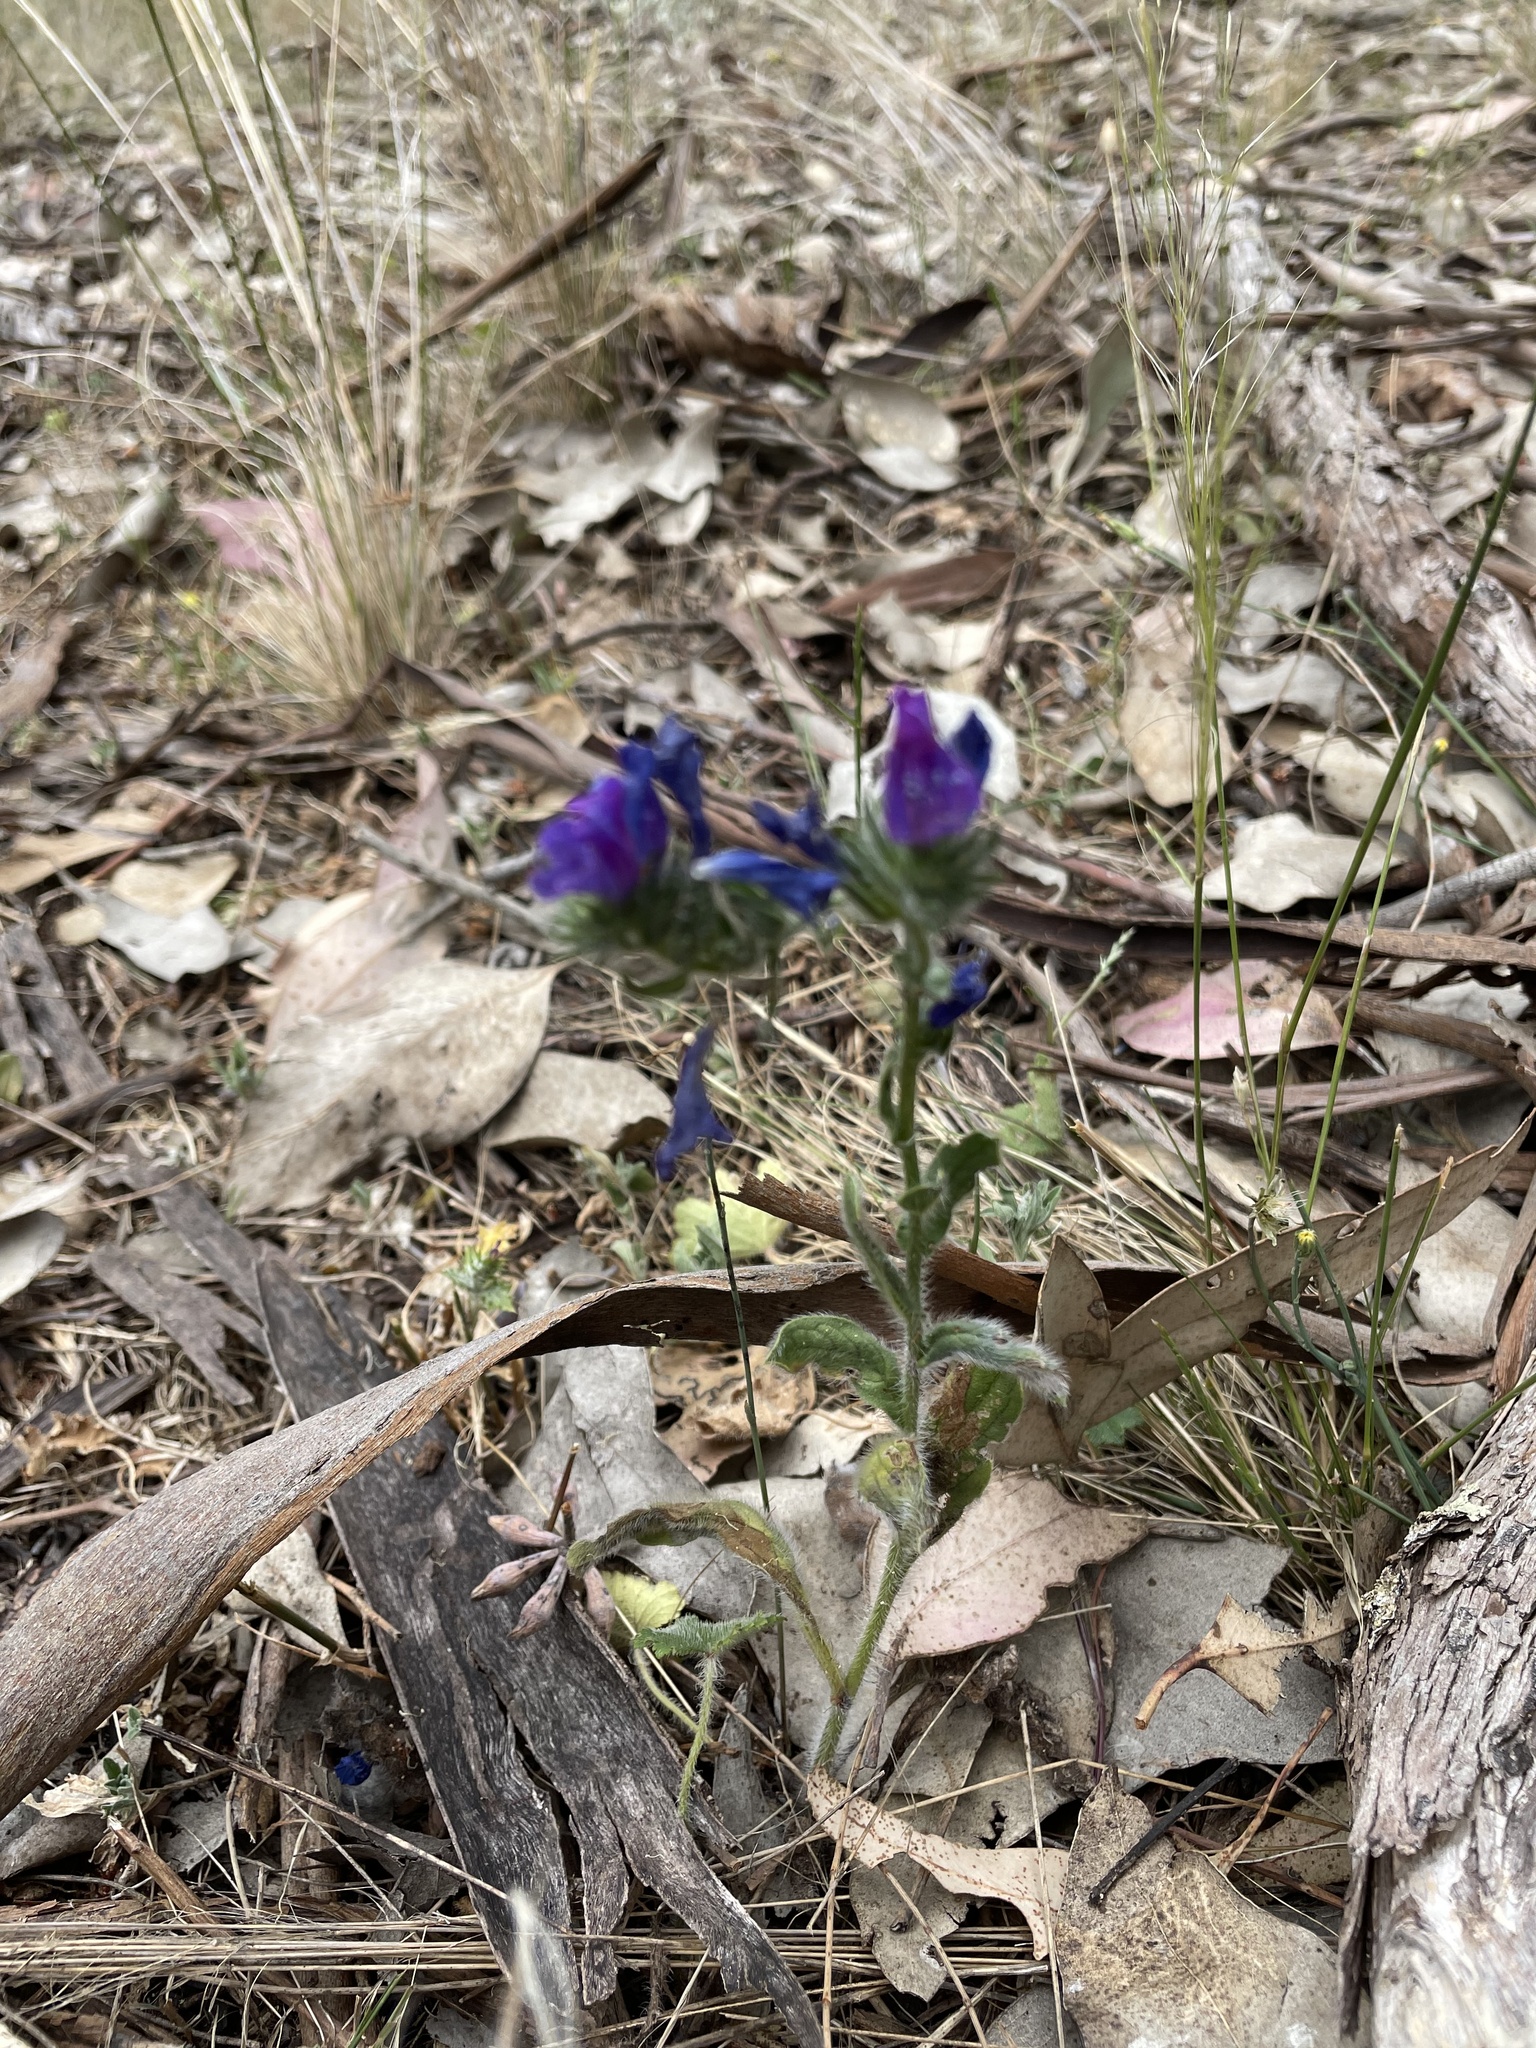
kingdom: Plantae
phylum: Tracheophyta
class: Magnoliopsida
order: Boraginales
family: Boraginaceae
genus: Echium
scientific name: Echium plantagineum
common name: Purple viper's-bugloss
